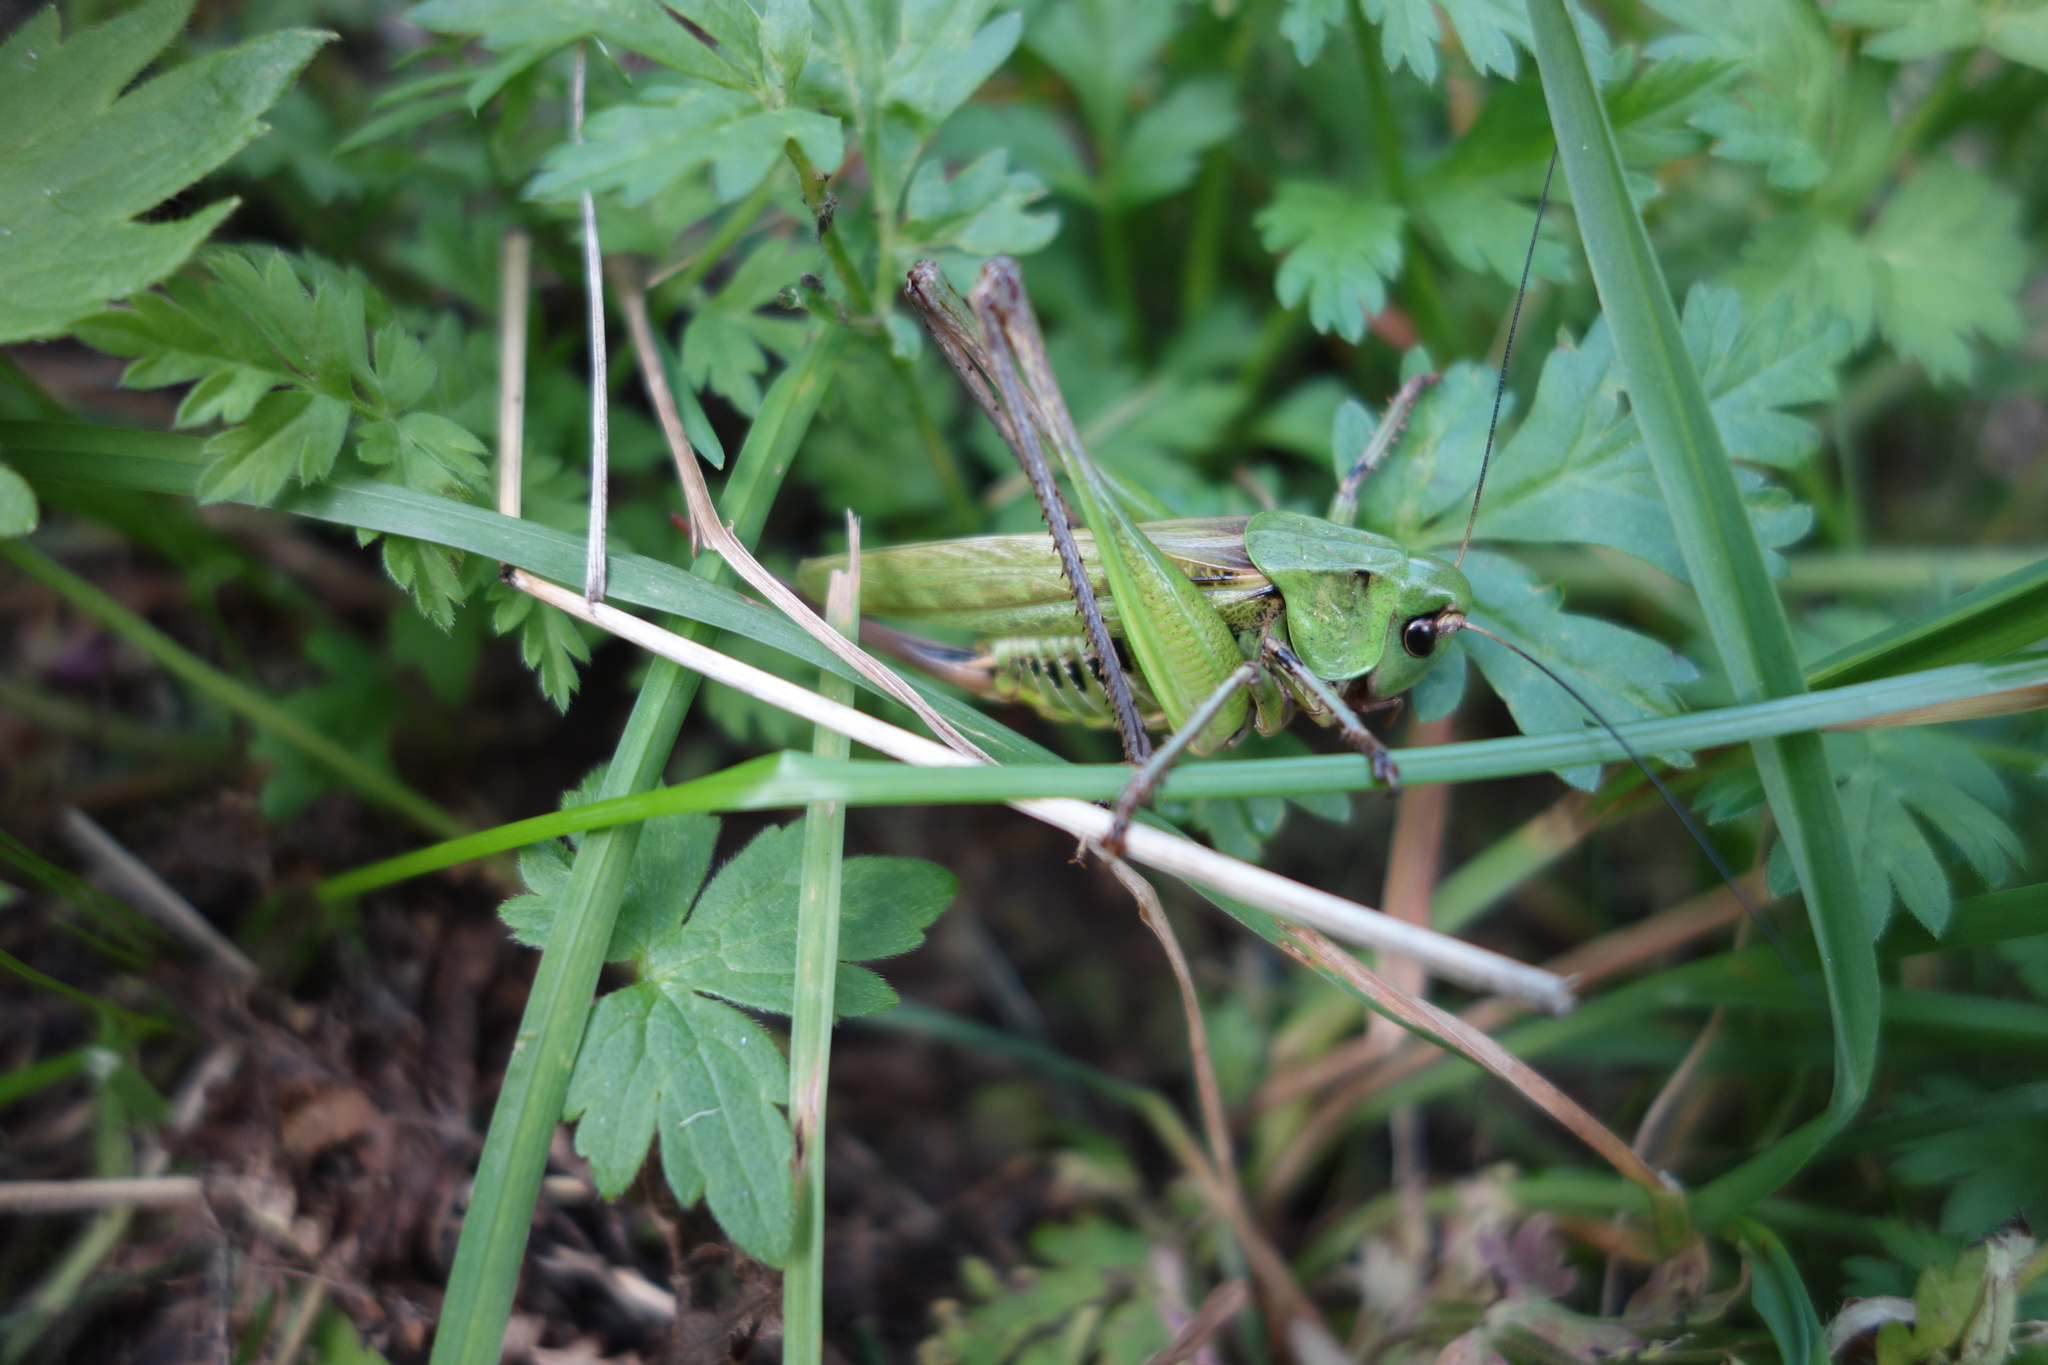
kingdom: Animalia
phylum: Arthropoda
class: Insecta
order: Orthoptera
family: Tettigoniidae
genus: Decticus
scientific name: Decticus verrucivorus
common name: Wart-biter
